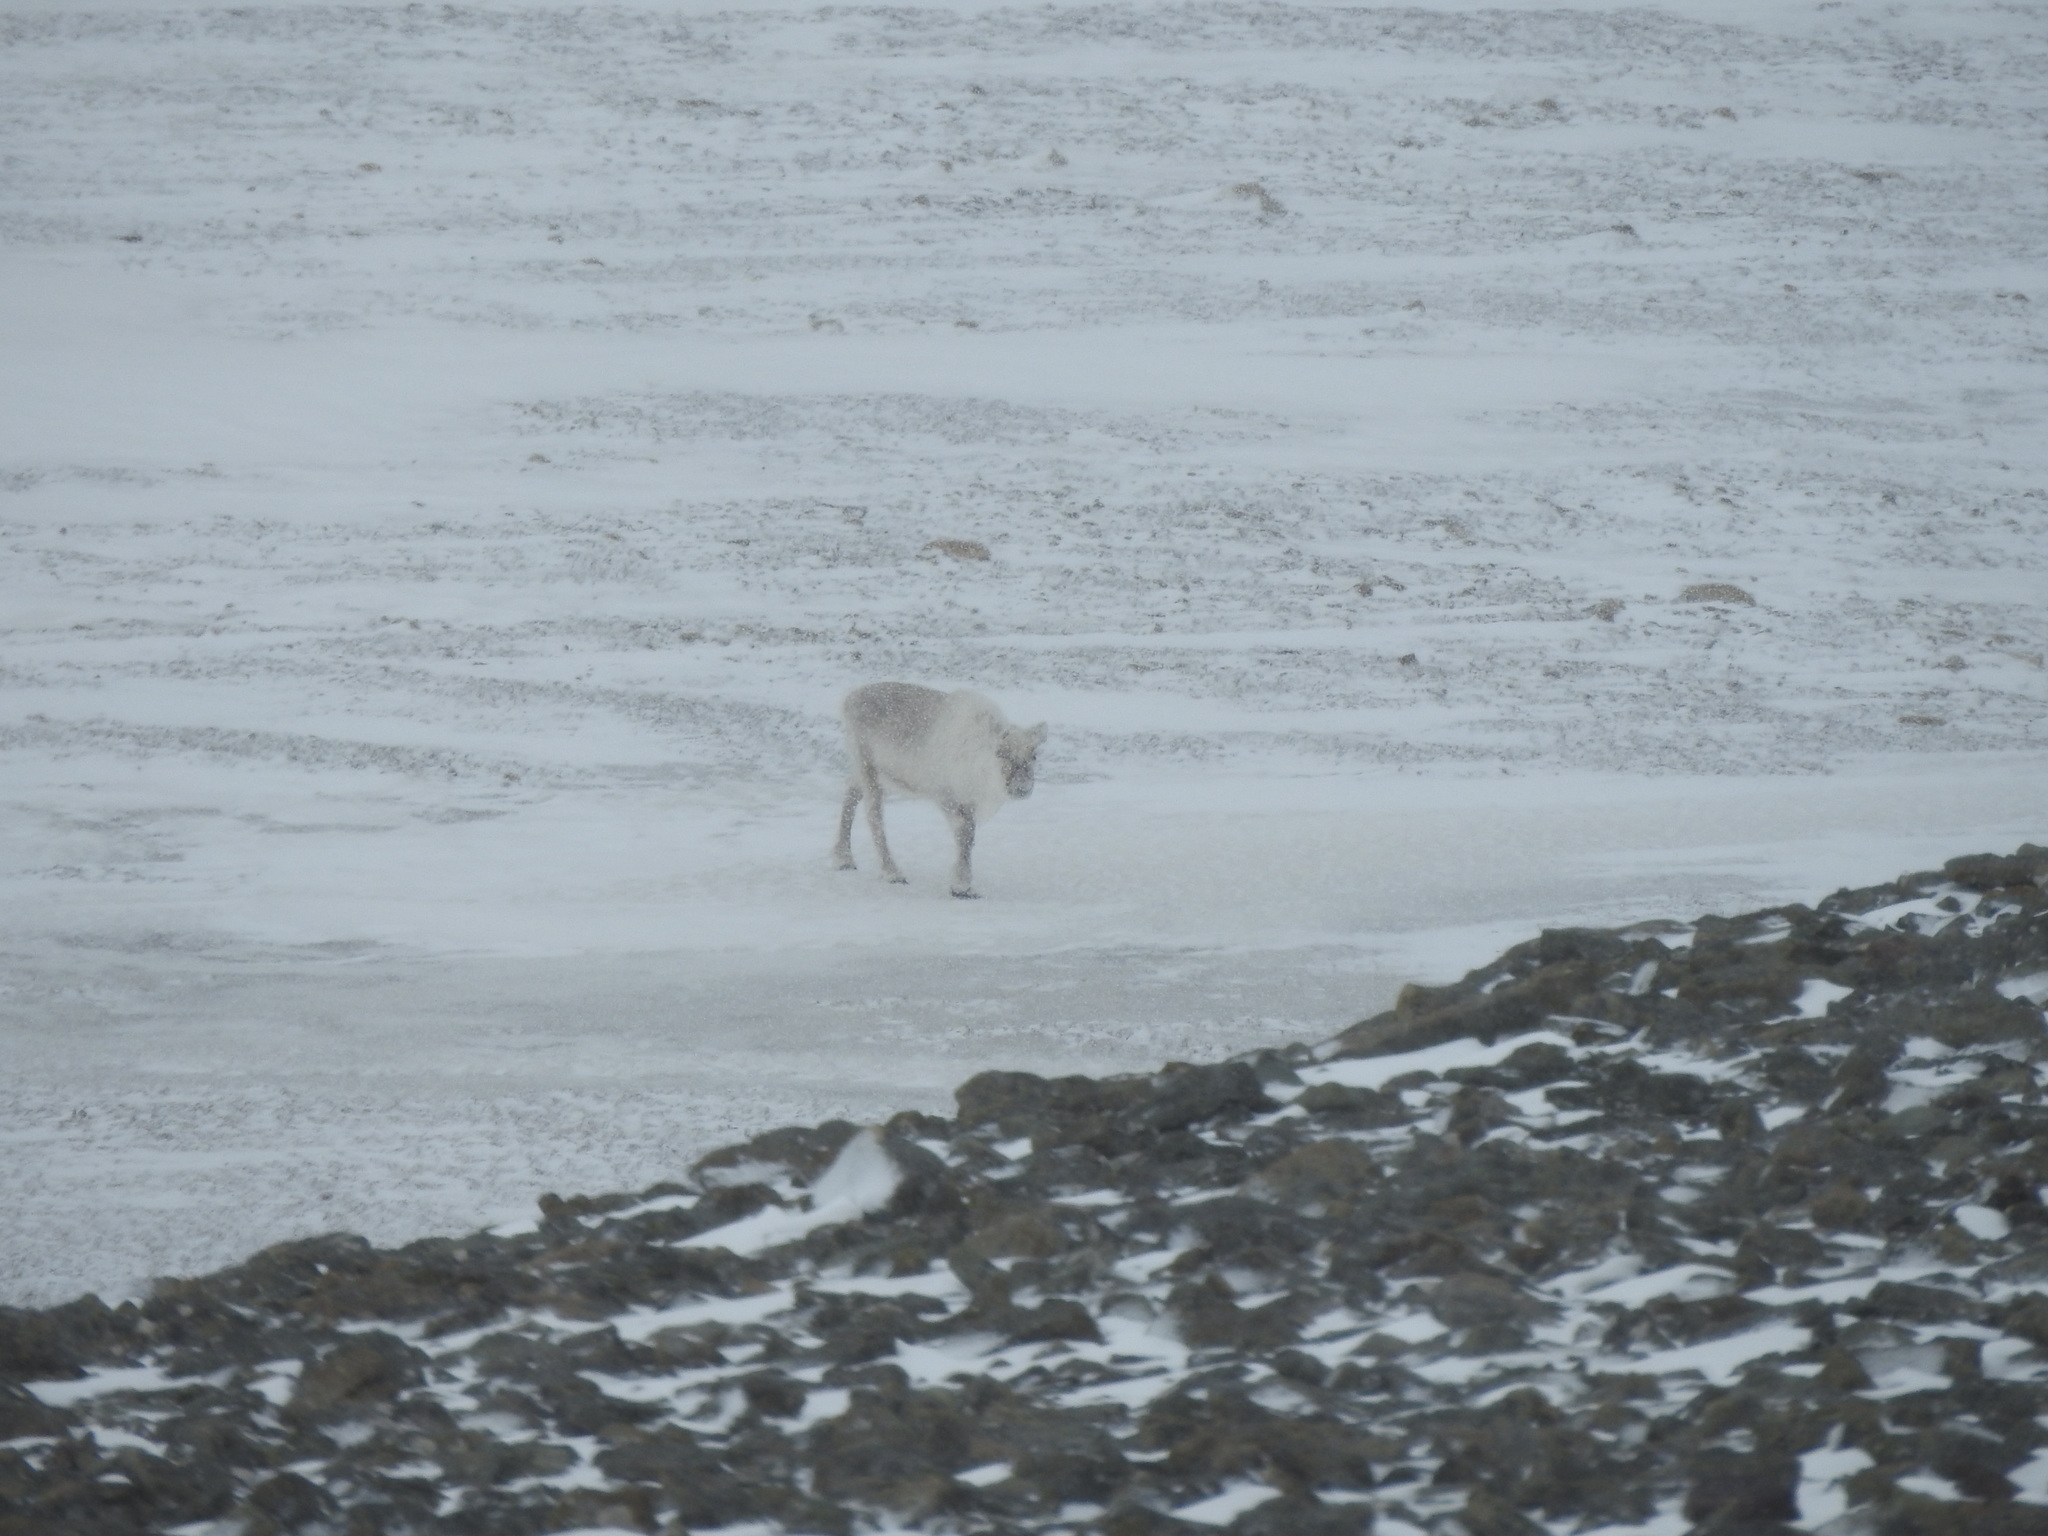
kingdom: Animalia
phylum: Chordata
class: Mammalia
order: Artiodactyla
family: Cervidae
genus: Rangifer
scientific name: Rangifer tarandus
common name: Reindeer
